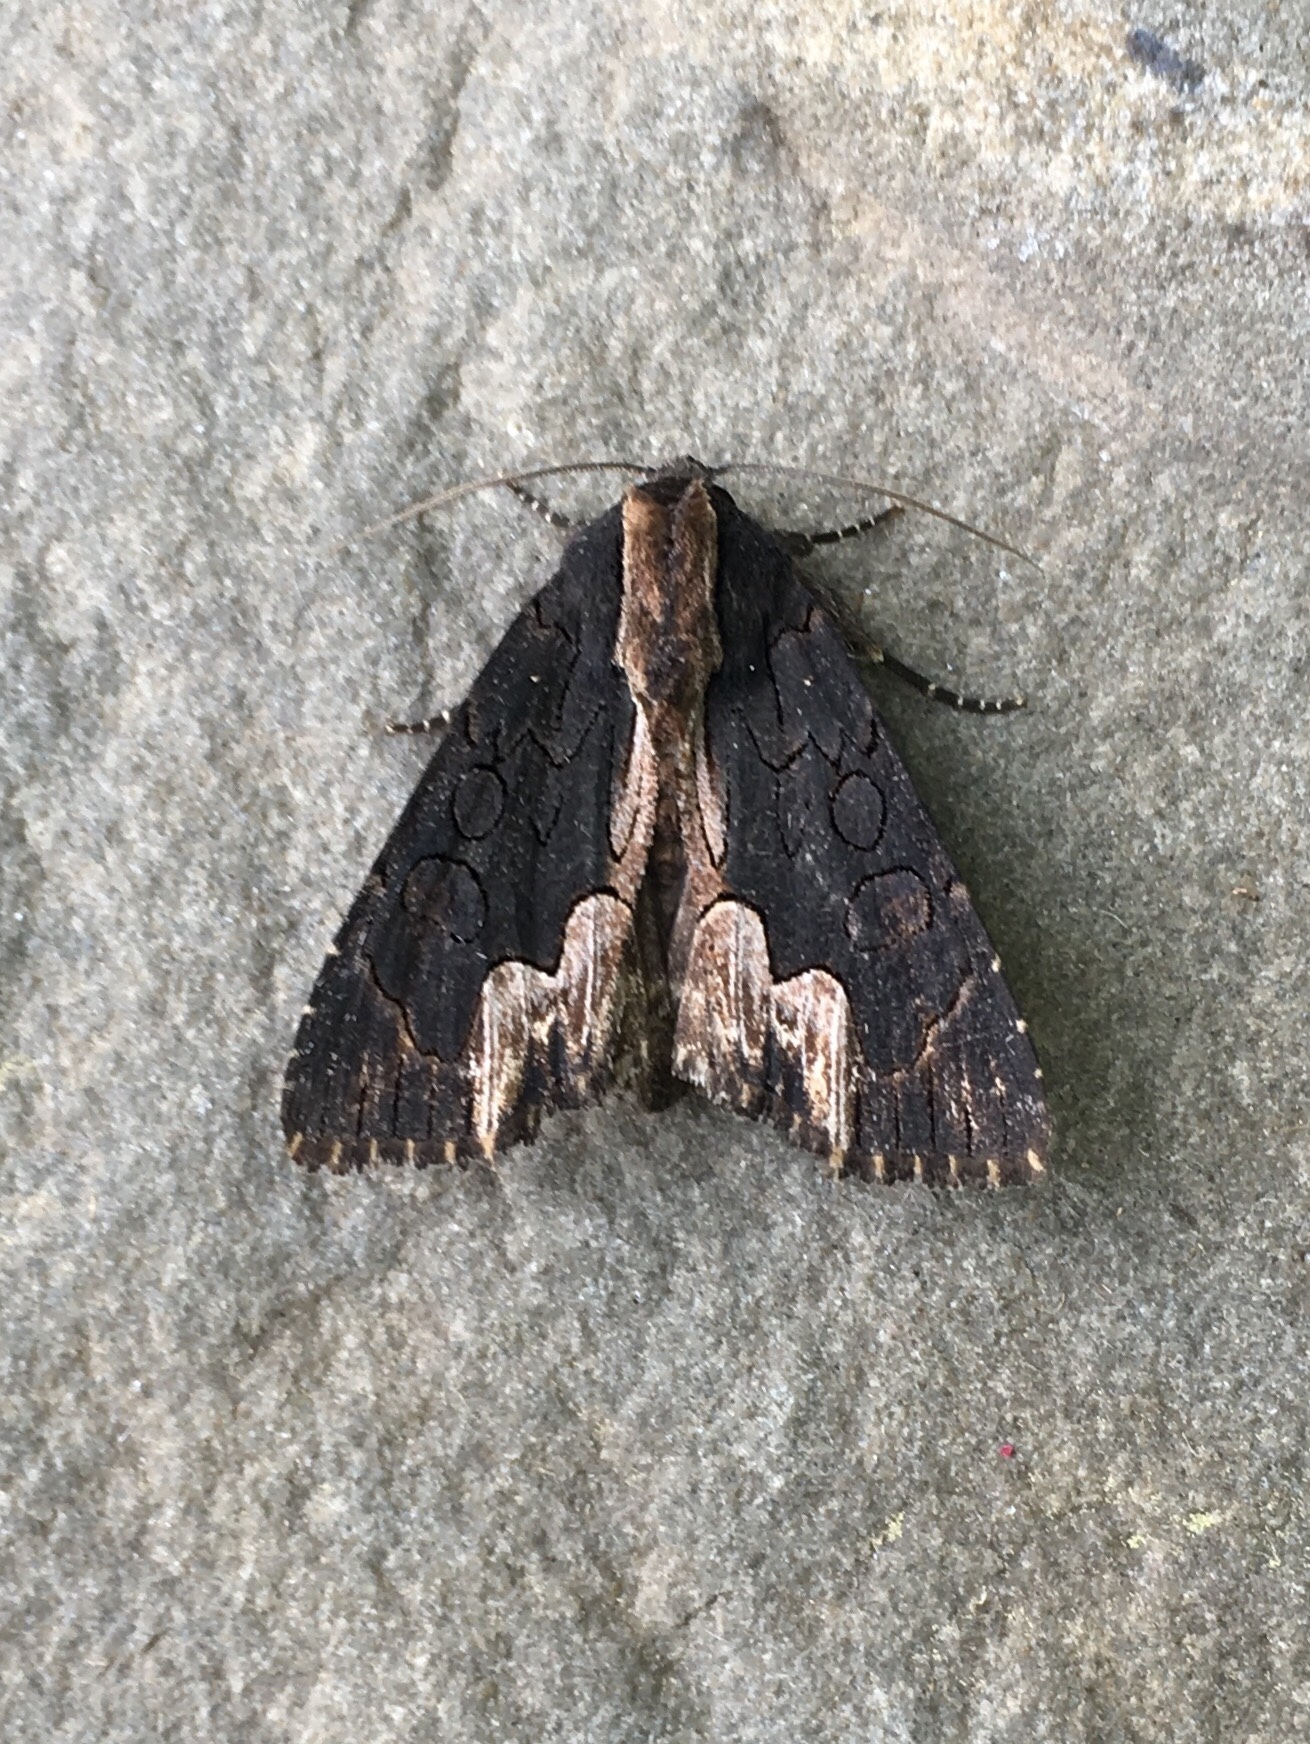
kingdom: Animalia
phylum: Arthropoda
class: Insecta
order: Lepidoptera
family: Noctuidae
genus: Dypterygia
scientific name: Dypterygia rozmani
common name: American bird's-wing
